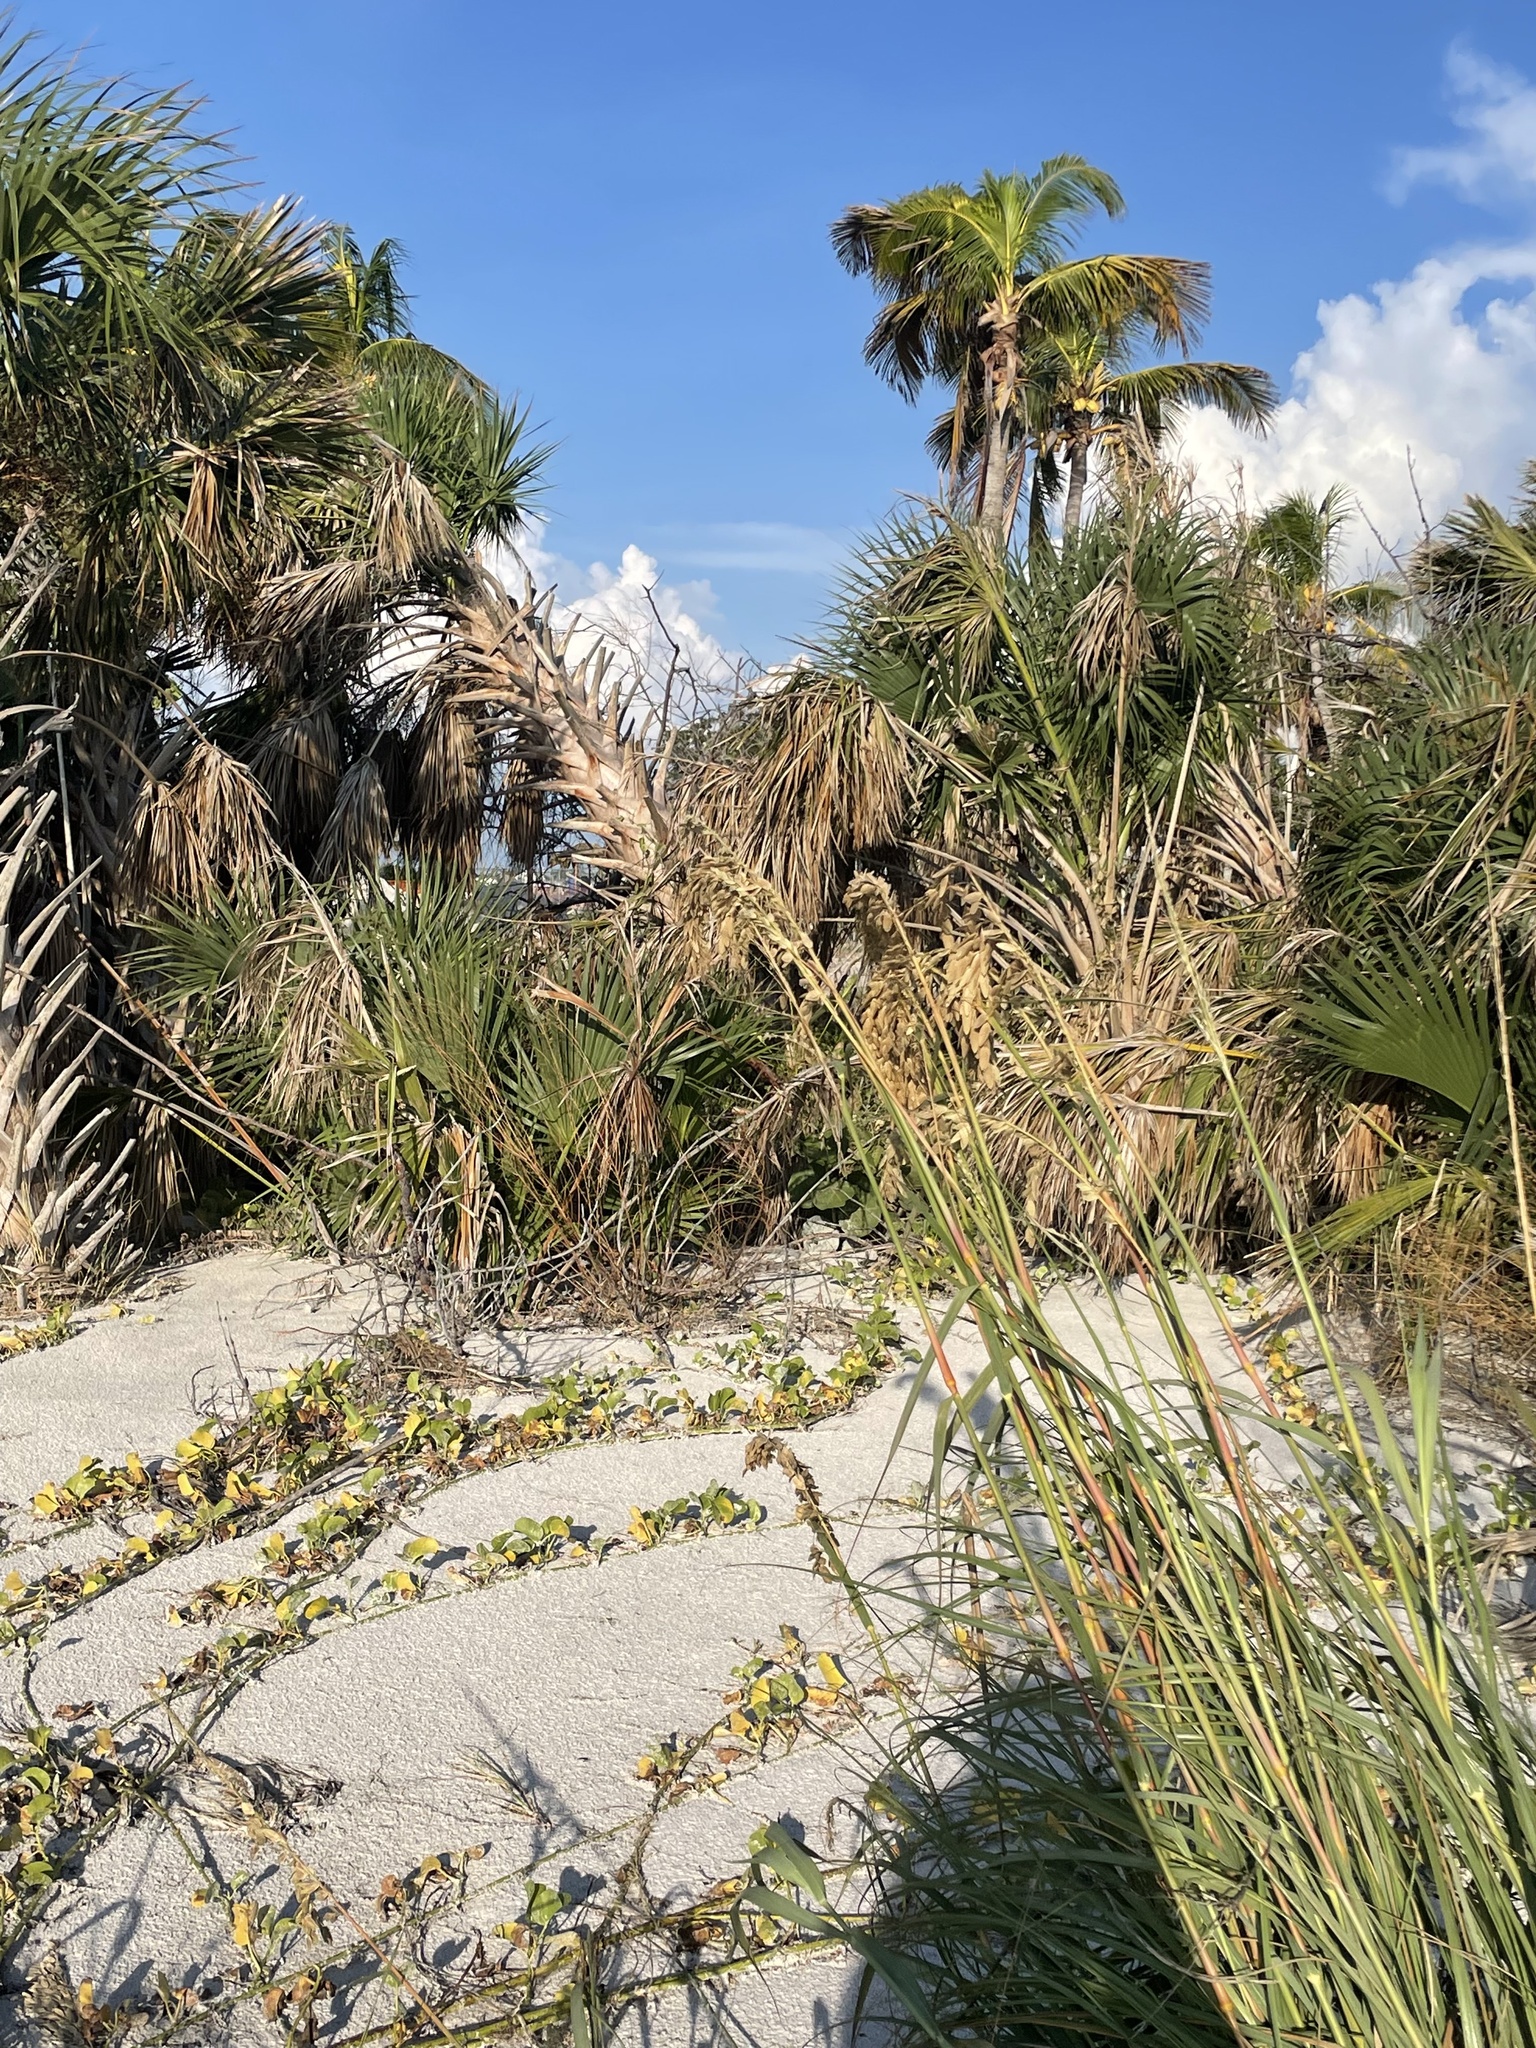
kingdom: Plantae
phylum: Tracheophyta
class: Liliopsida
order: Poales
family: Poaceae
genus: Uniola
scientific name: Uniola paniculata
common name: Seaside-oats
